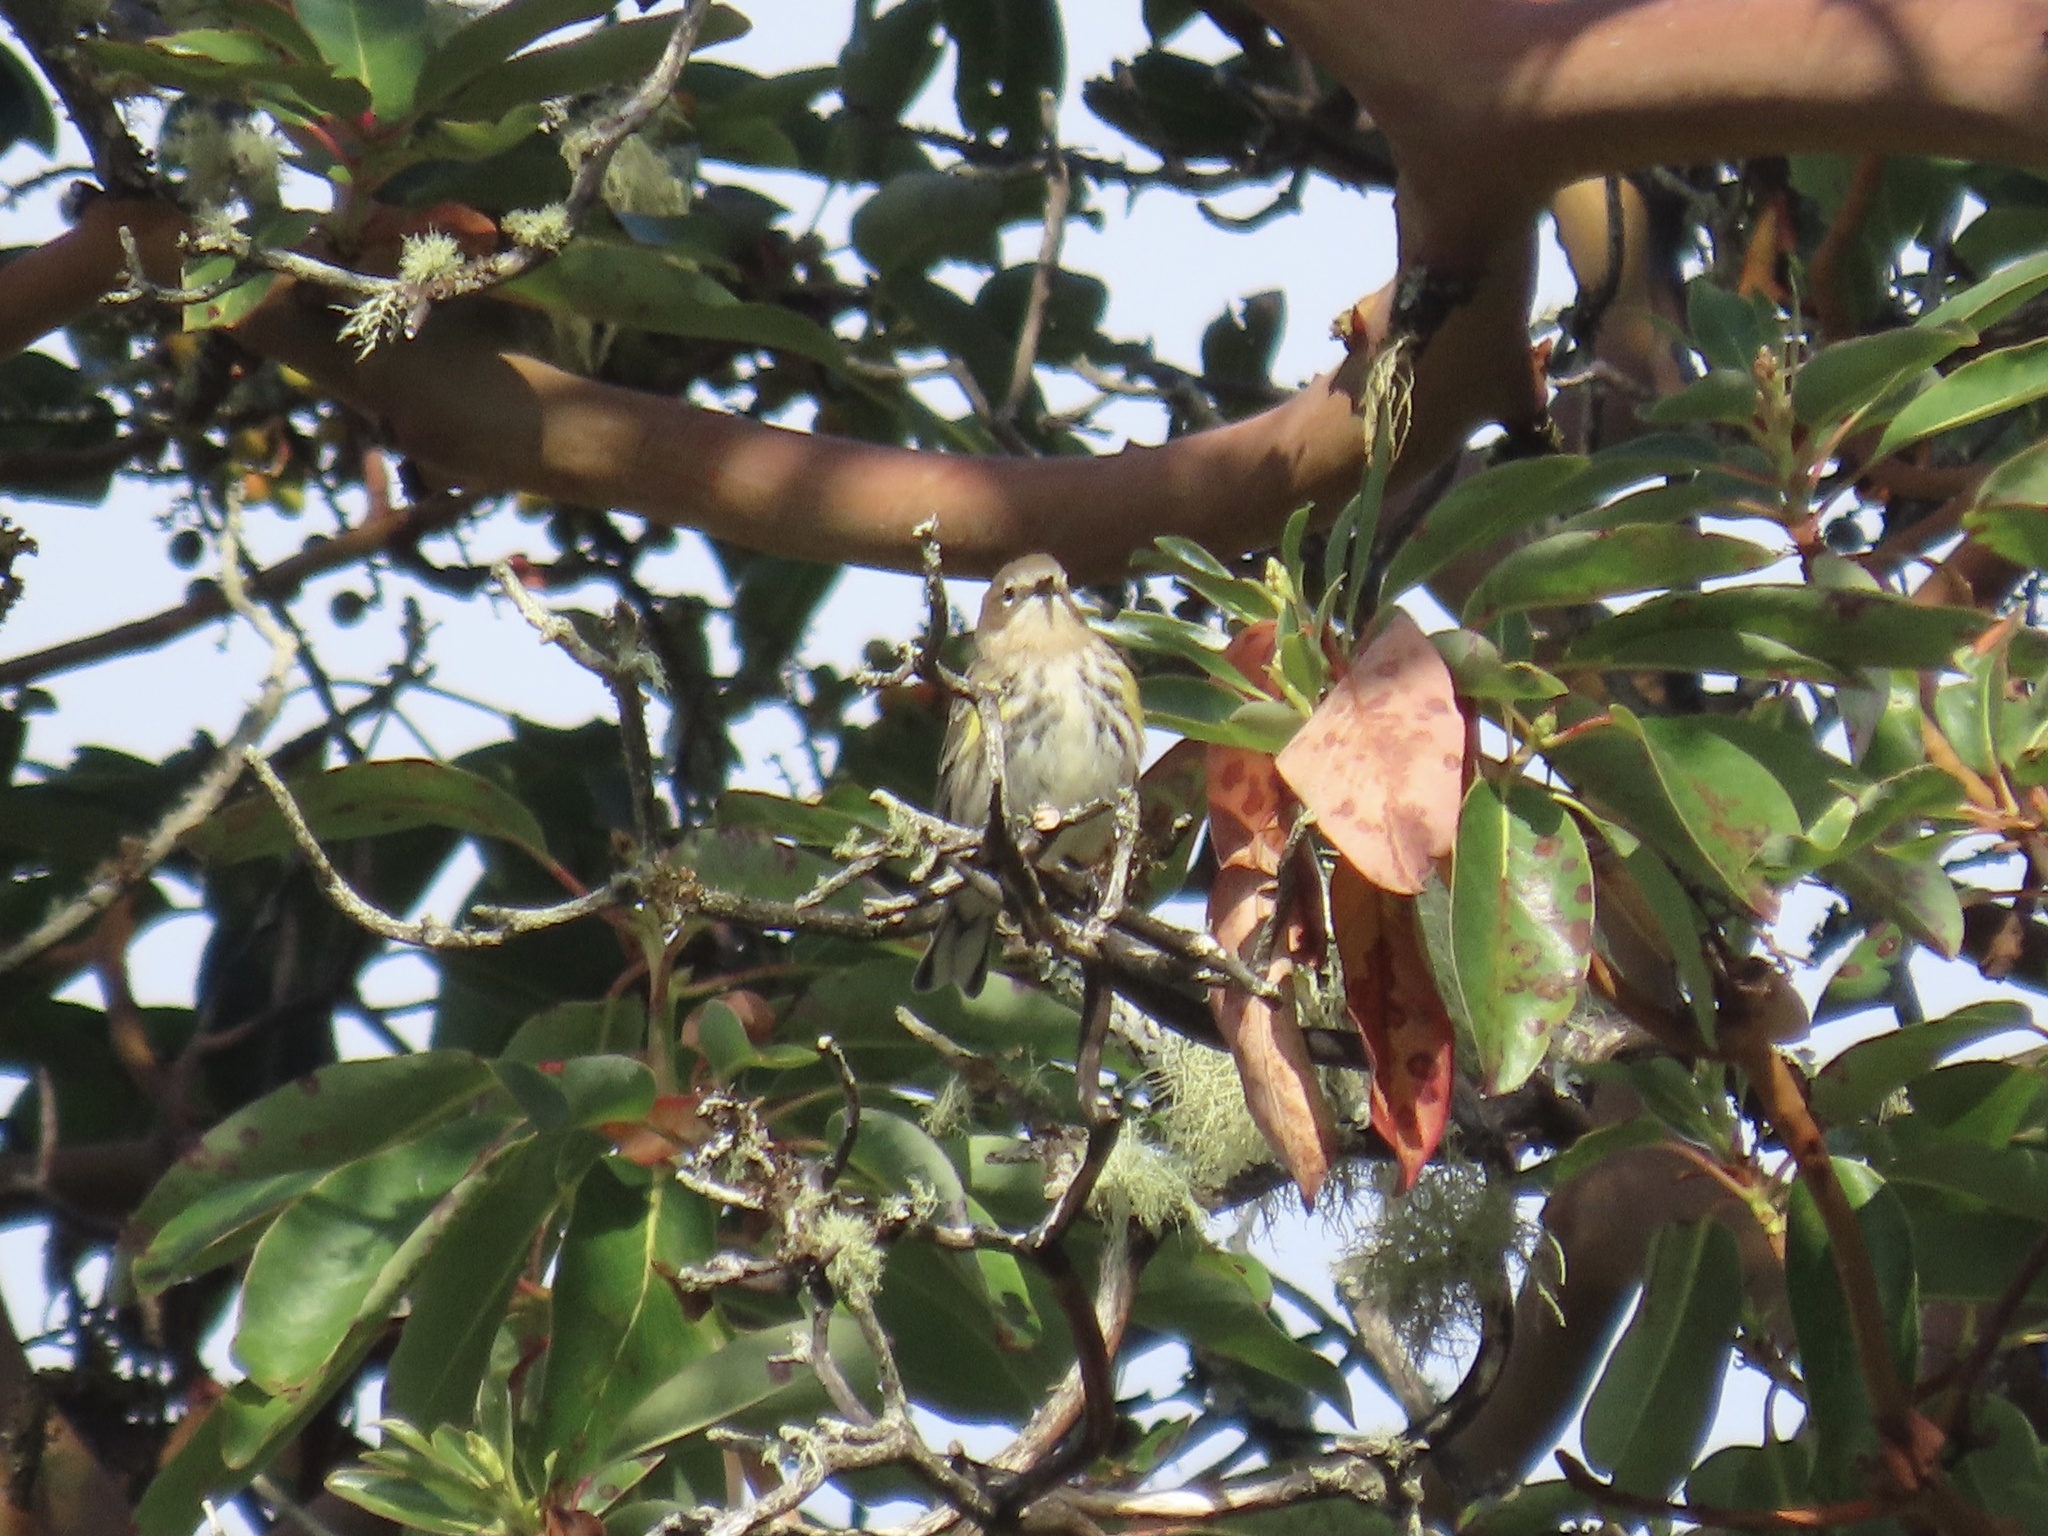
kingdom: Animalia
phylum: Chordata
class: Aves
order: Passeriformes
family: Parulidae
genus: Setophaga
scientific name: Setophaga coronata
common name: Myrtle warbler
